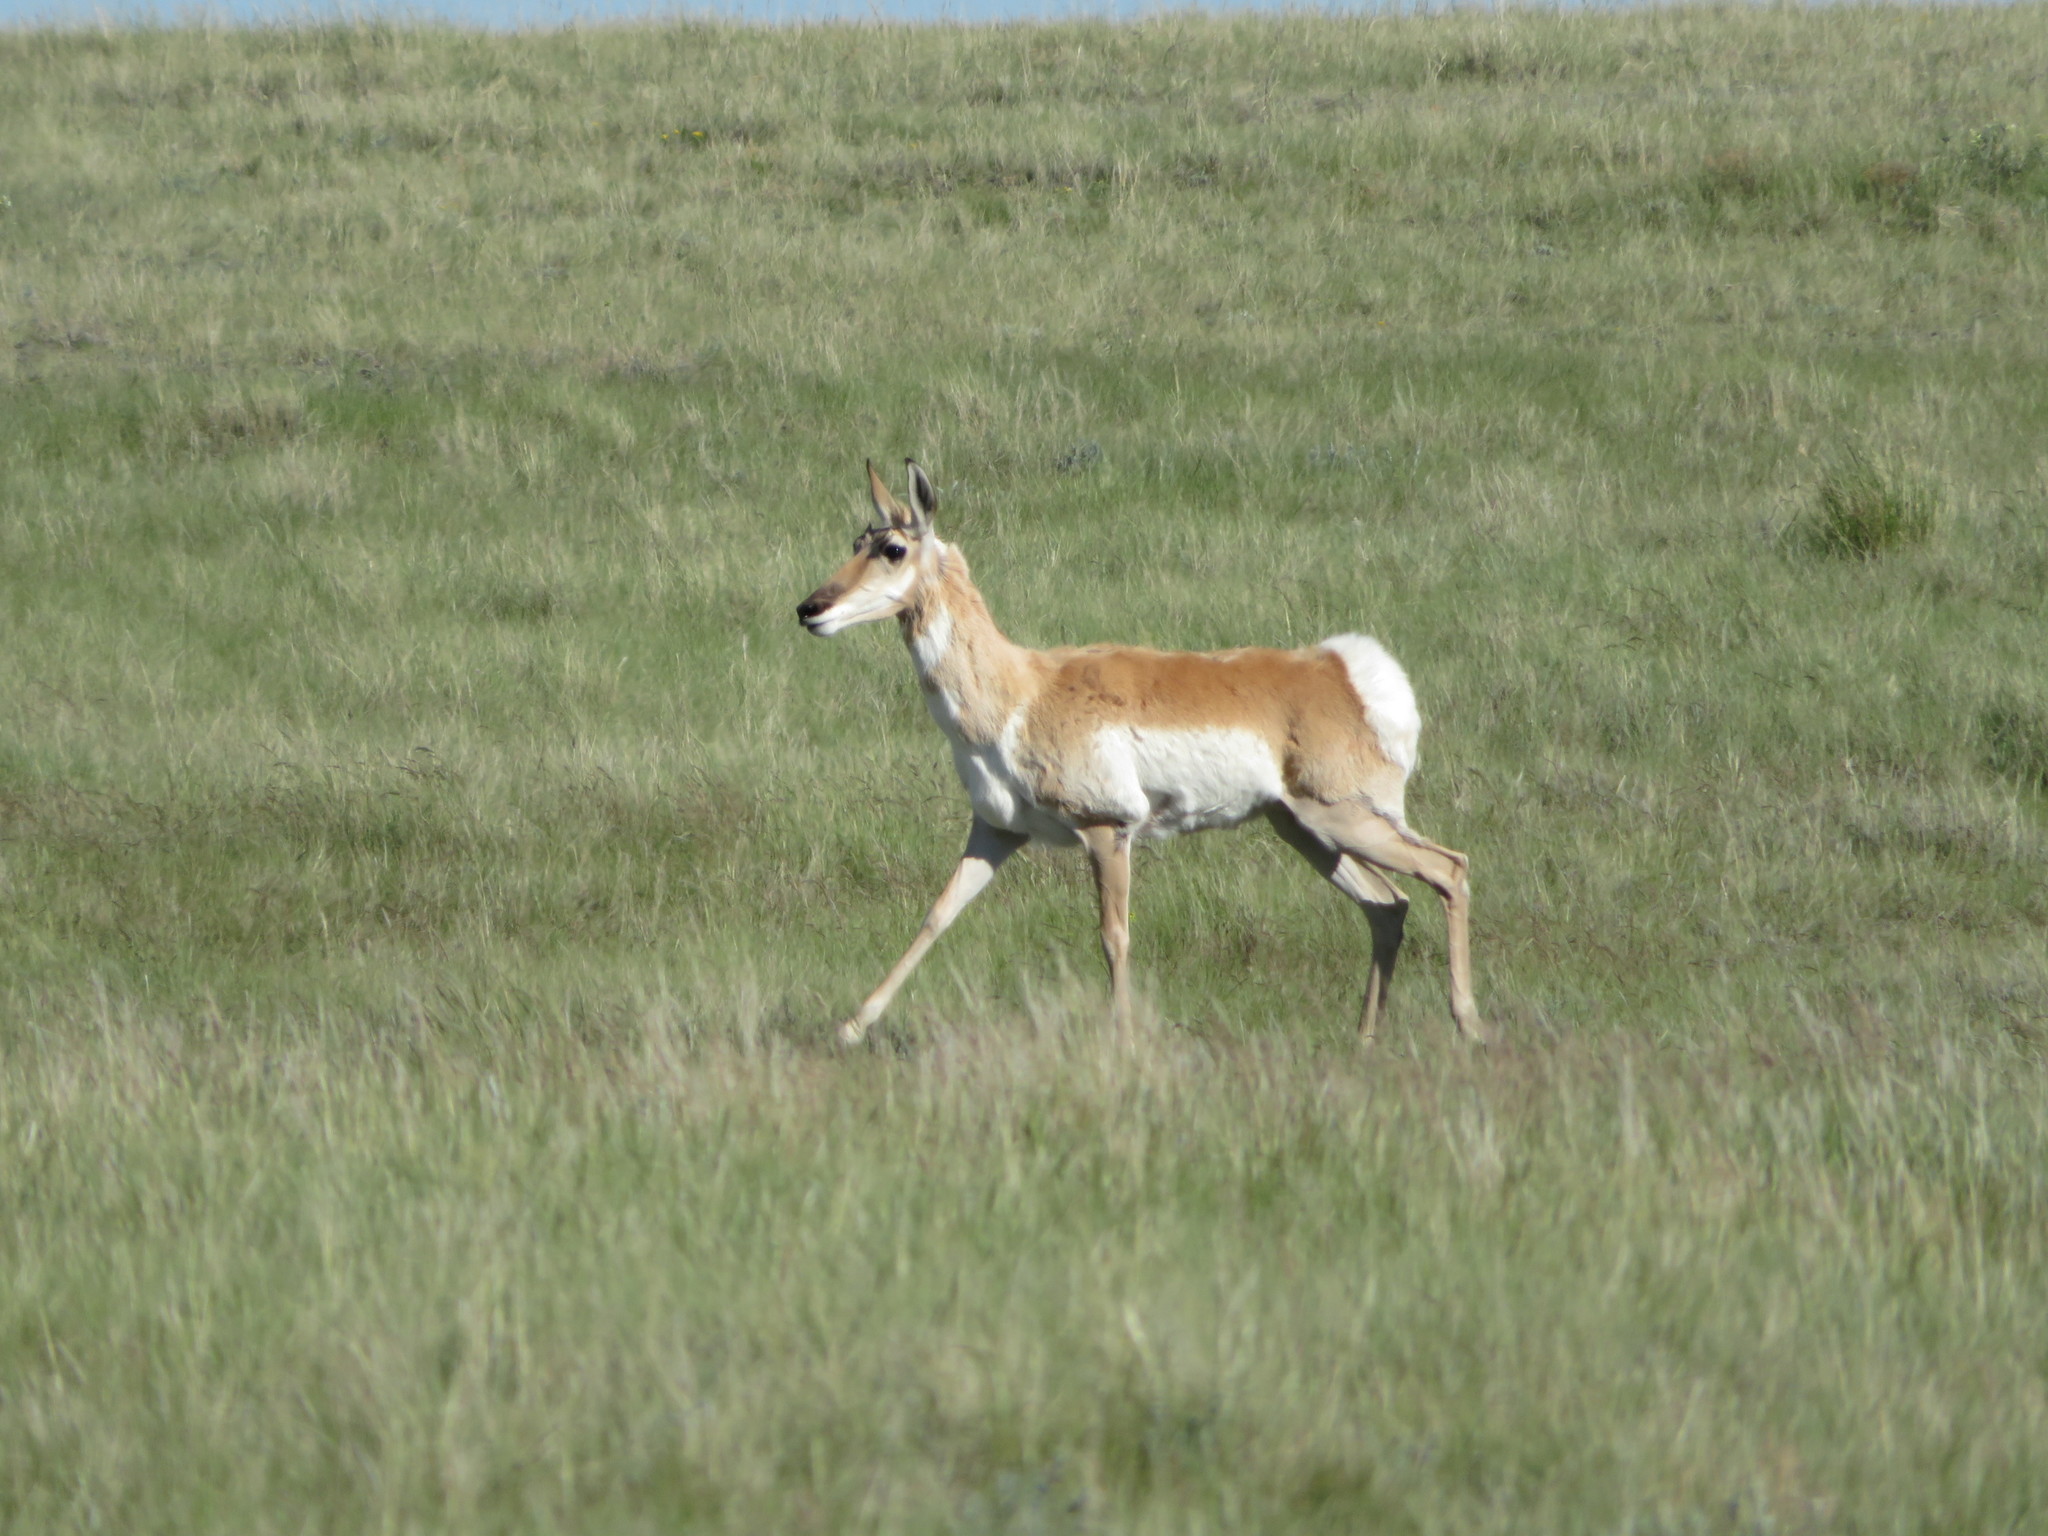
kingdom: Animalia
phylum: Chordata
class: Mammalia
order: Artiodactyla
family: Antilocapridae
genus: Antilocapra
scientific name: Antilocapra americana
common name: Pronghorn
